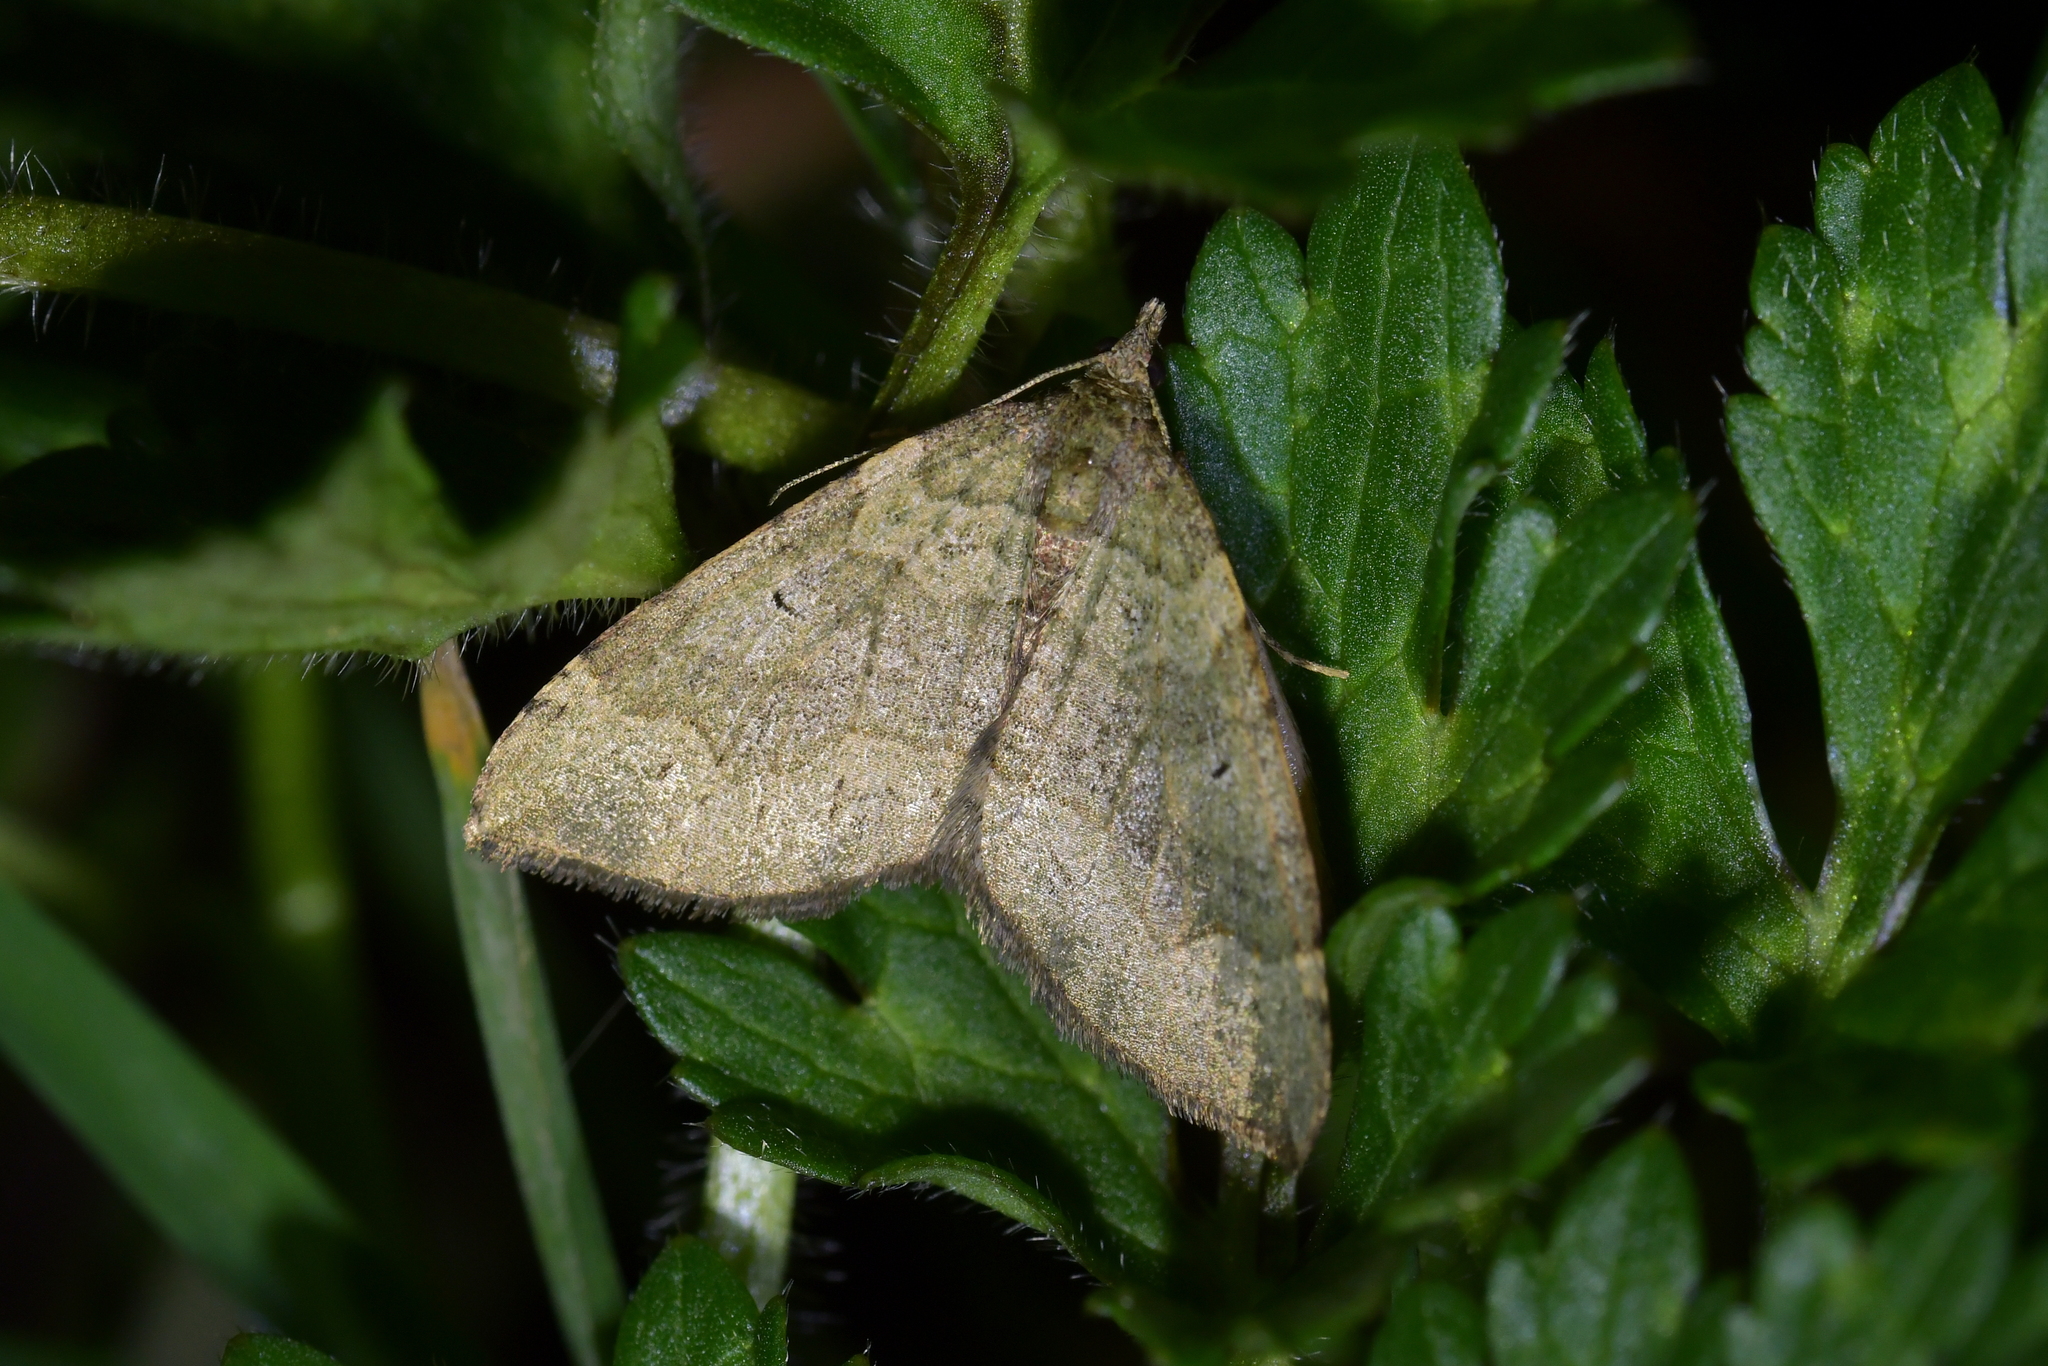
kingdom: Animalia
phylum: Arthropoda
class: Insecta
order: Lepidoptera
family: Geometridae
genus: Epyaxa
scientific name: Epyaxa rosearia
